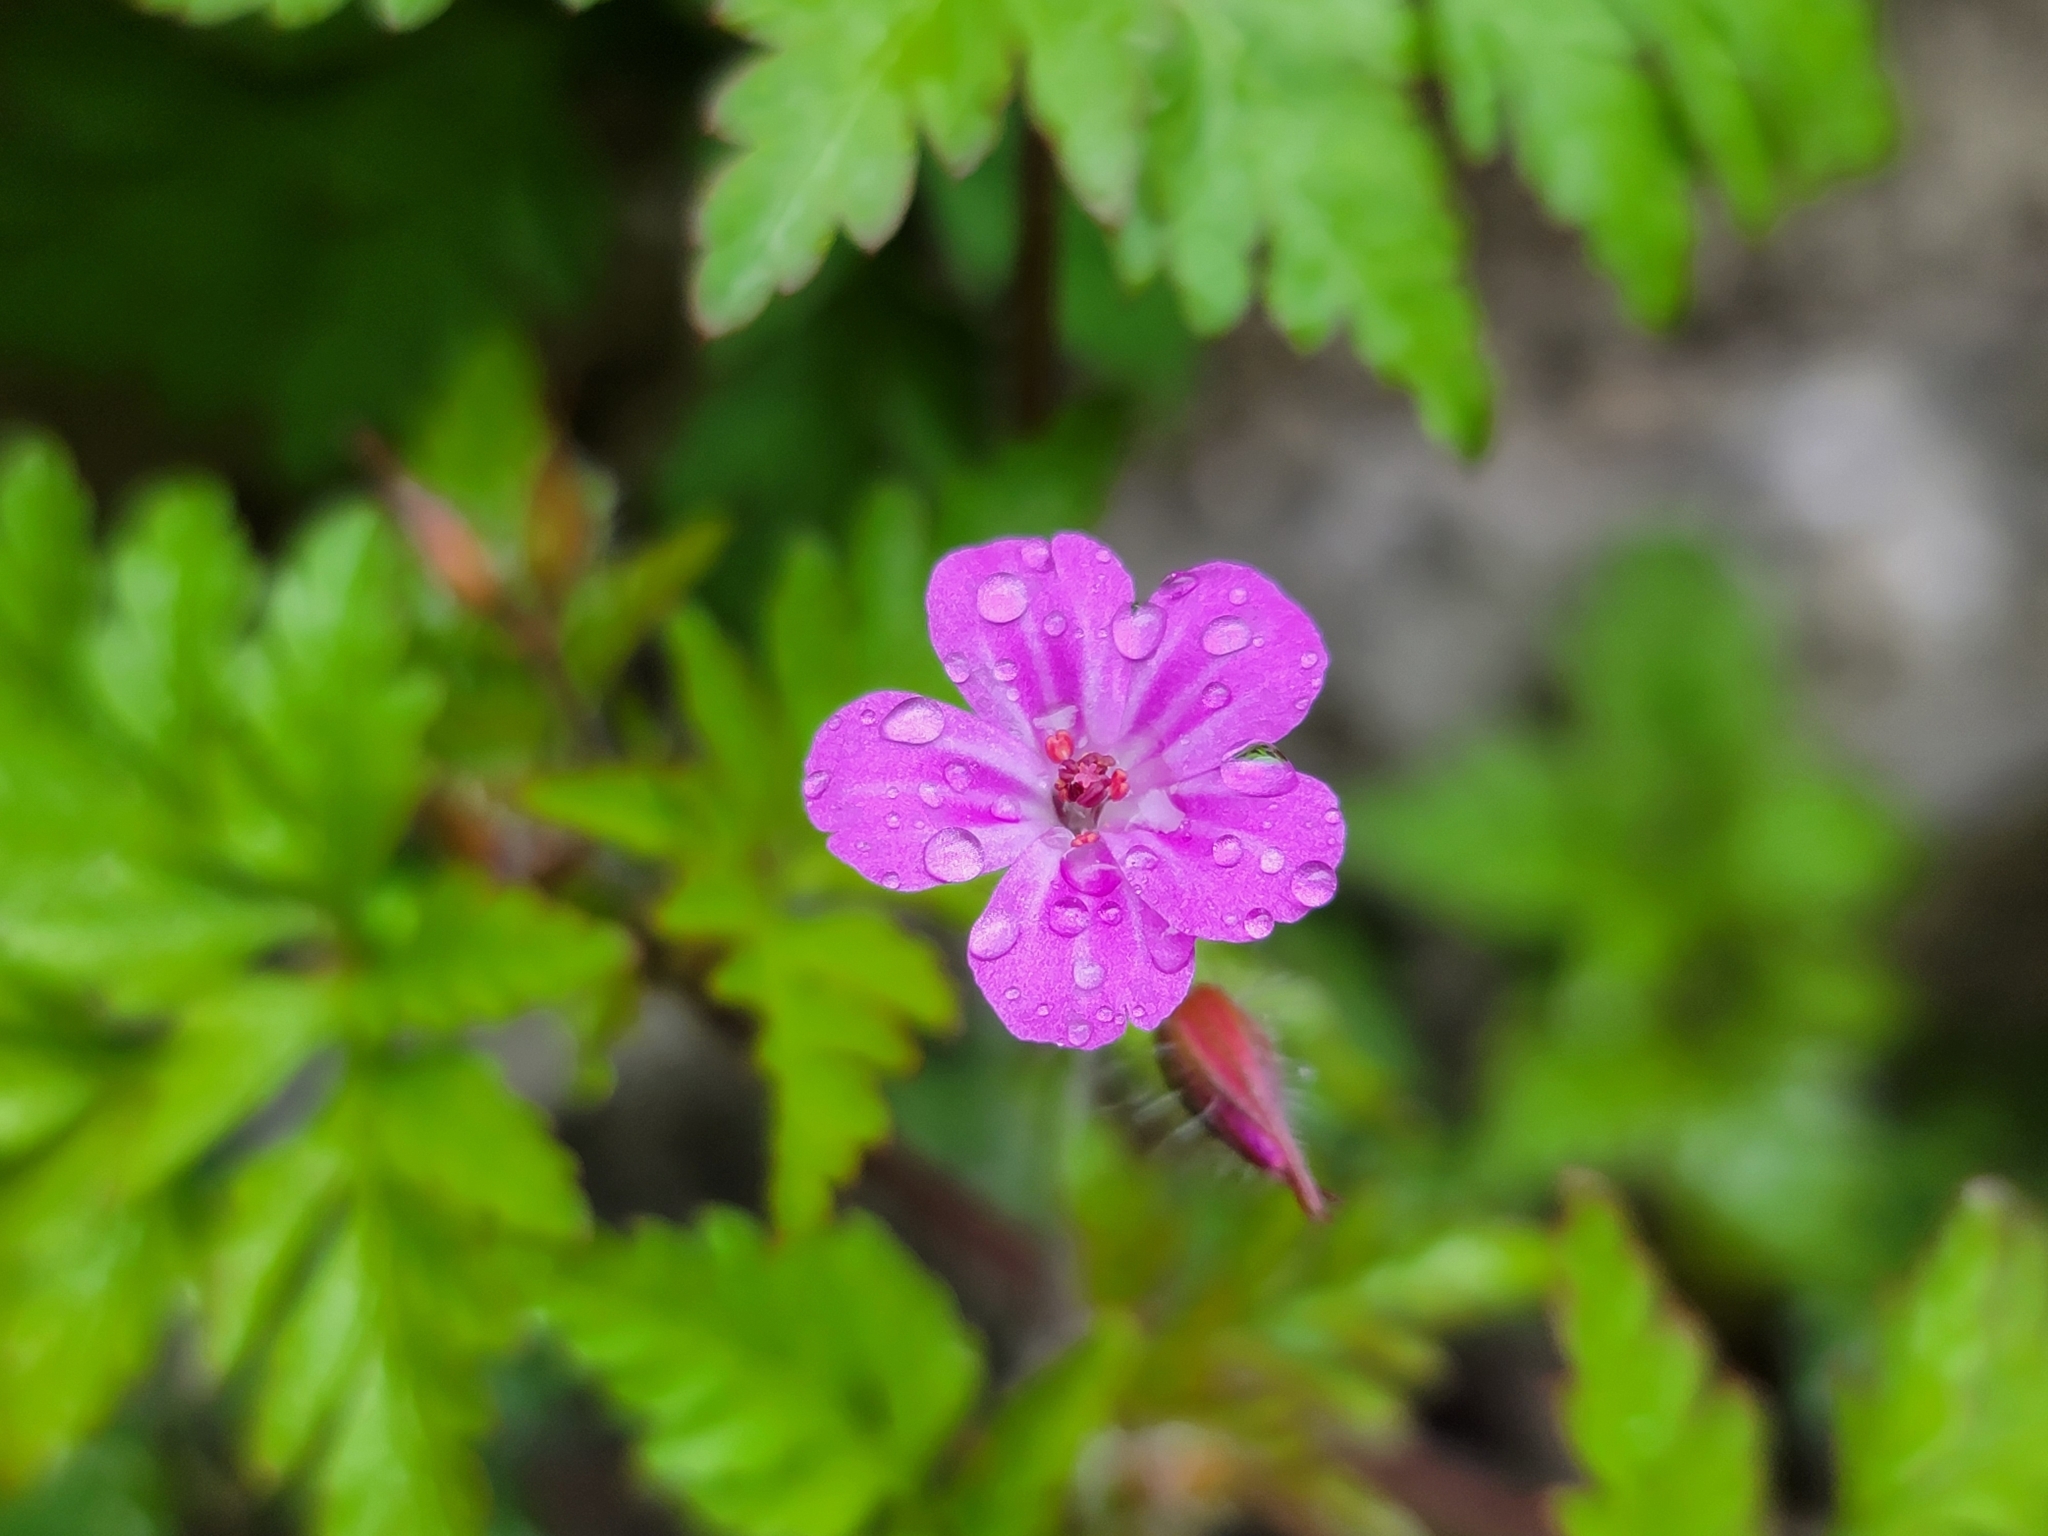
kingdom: Plantae
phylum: Tracheophyta
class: Magnoliopsida
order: Geraniales
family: Geraniaceae
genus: Geranium
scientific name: Geranium robertianum
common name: Herb-robert
